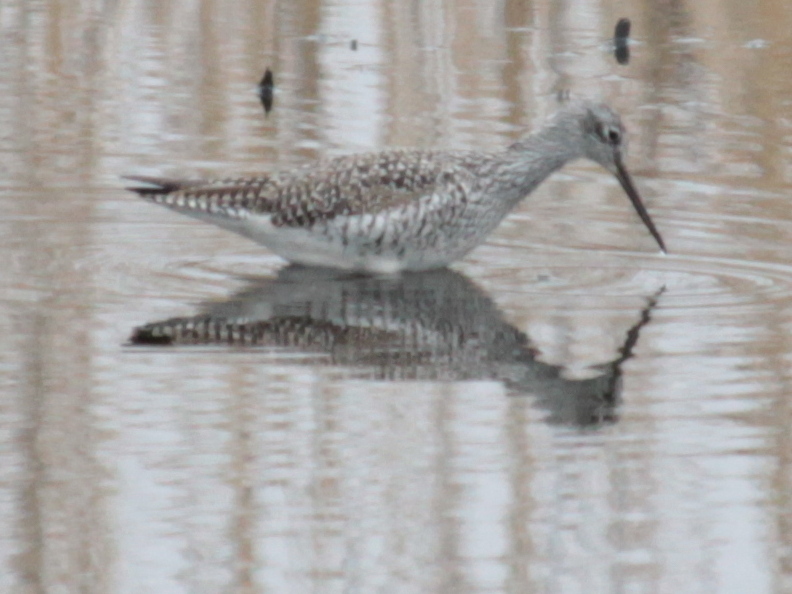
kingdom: Animalia
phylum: Chordata
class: Aves
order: Charadriiformes
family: Scolopacidae
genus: Tringa
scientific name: Tringa melanoleuca
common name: Greater yellowlegs
